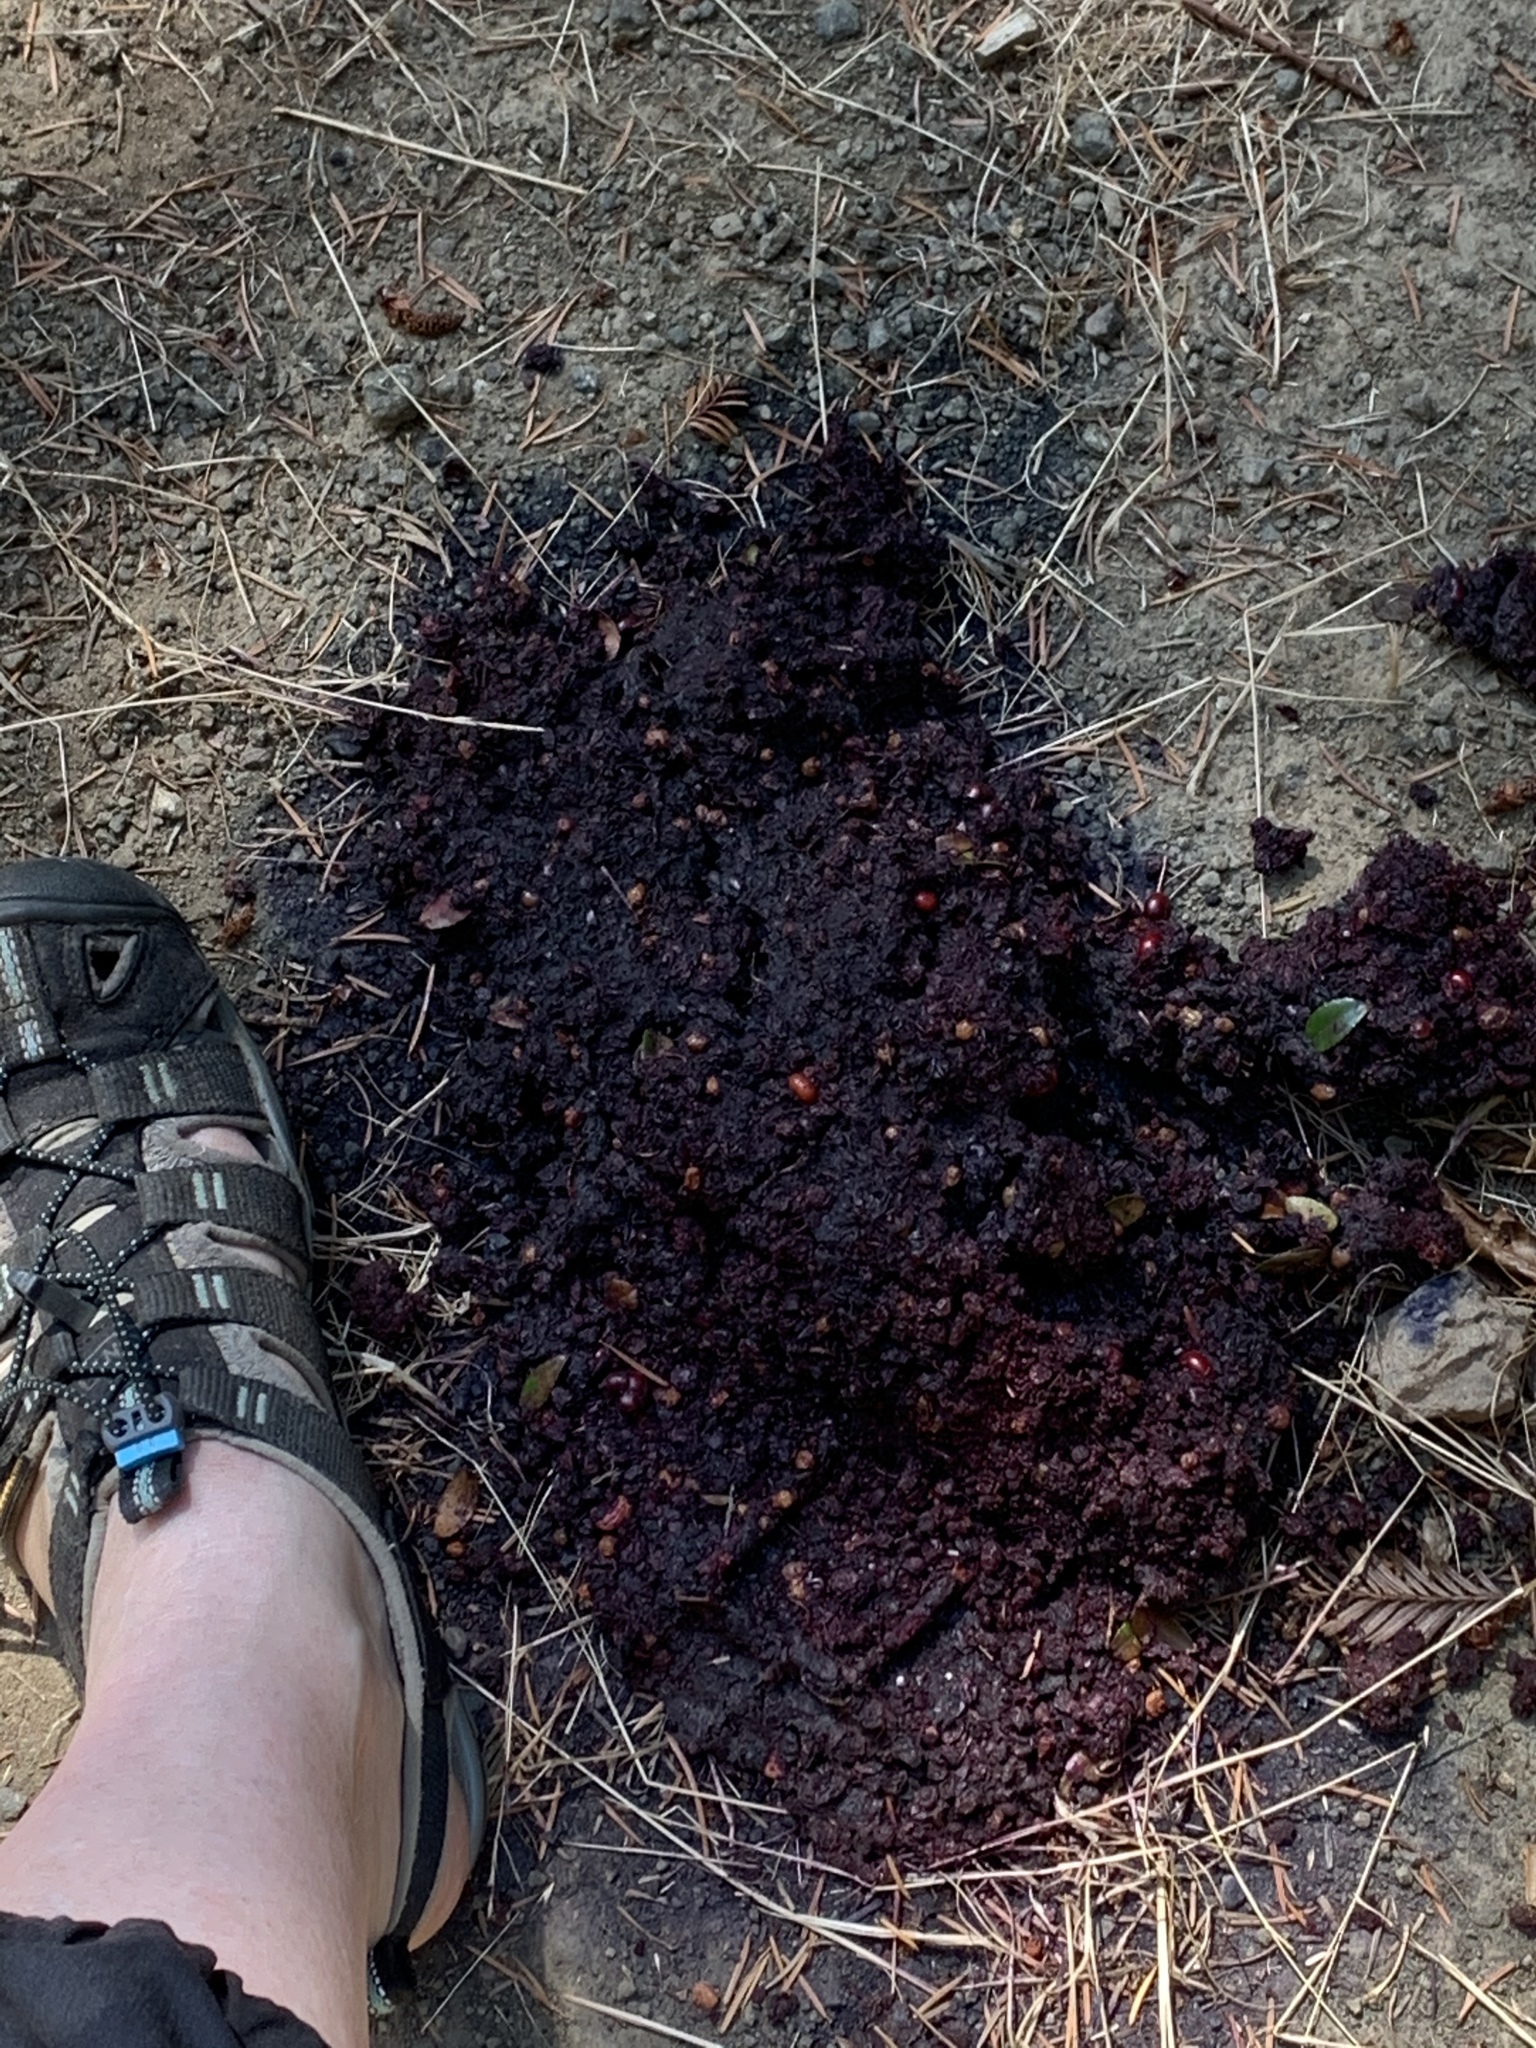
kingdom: Animalia
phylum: Chordata
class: Mammalia
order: Carnivora
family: Ursidae
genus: Ursus
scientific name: Ursus americanus
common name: American black bear
